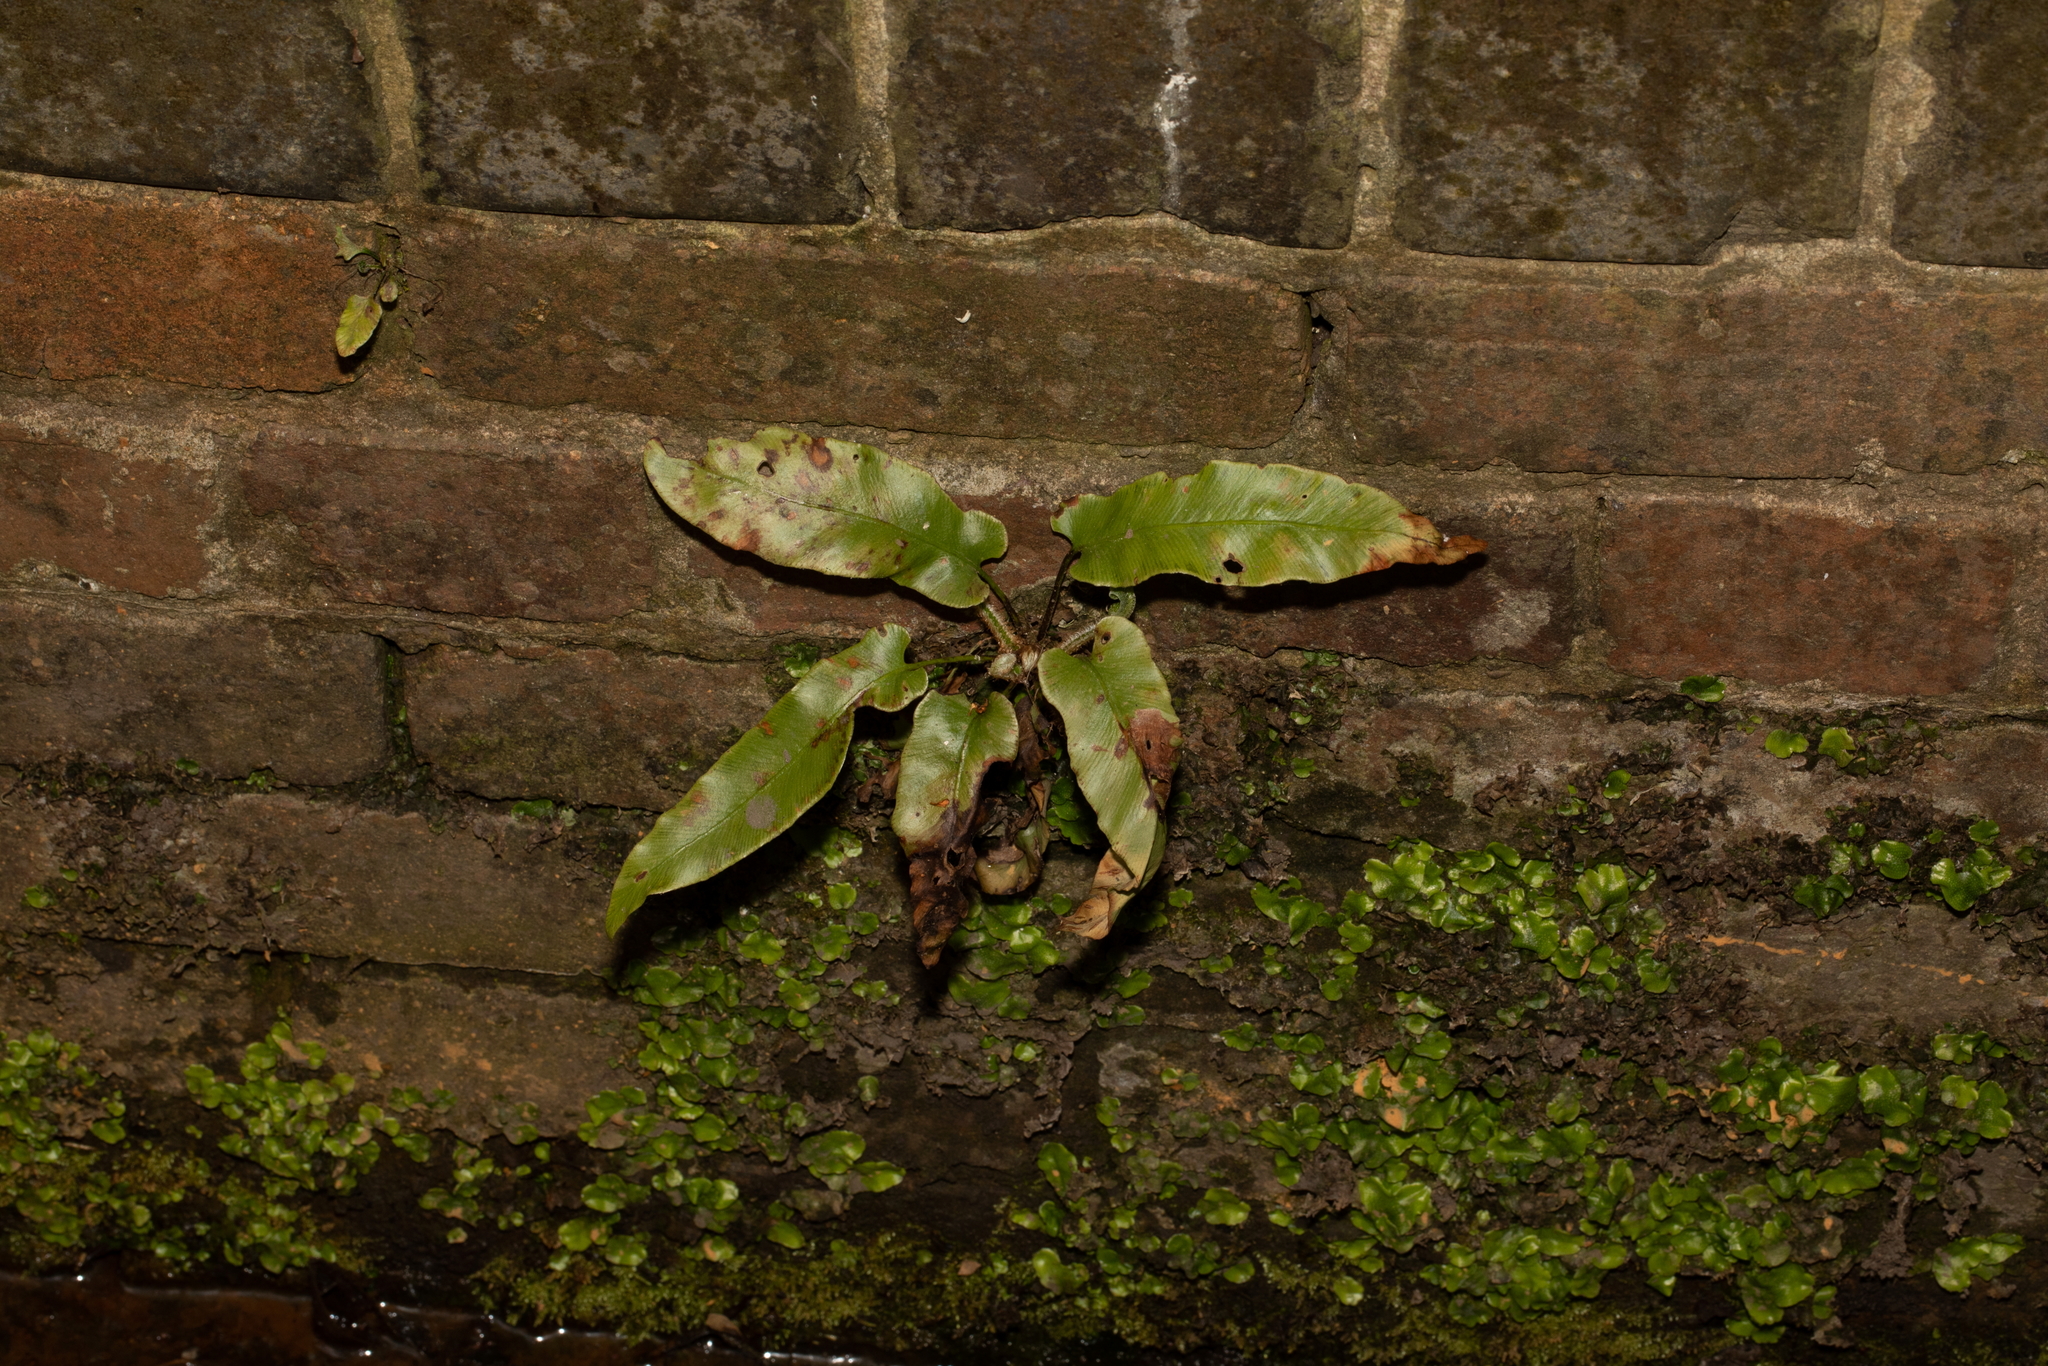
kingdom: Plantae
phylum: Tracheophyta
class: Polypodiopsida
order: Polypodiales
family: Aspleniaceae
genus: Asplenium
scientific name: Asplenium scolopendrium
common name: Hart's-tongue fern
